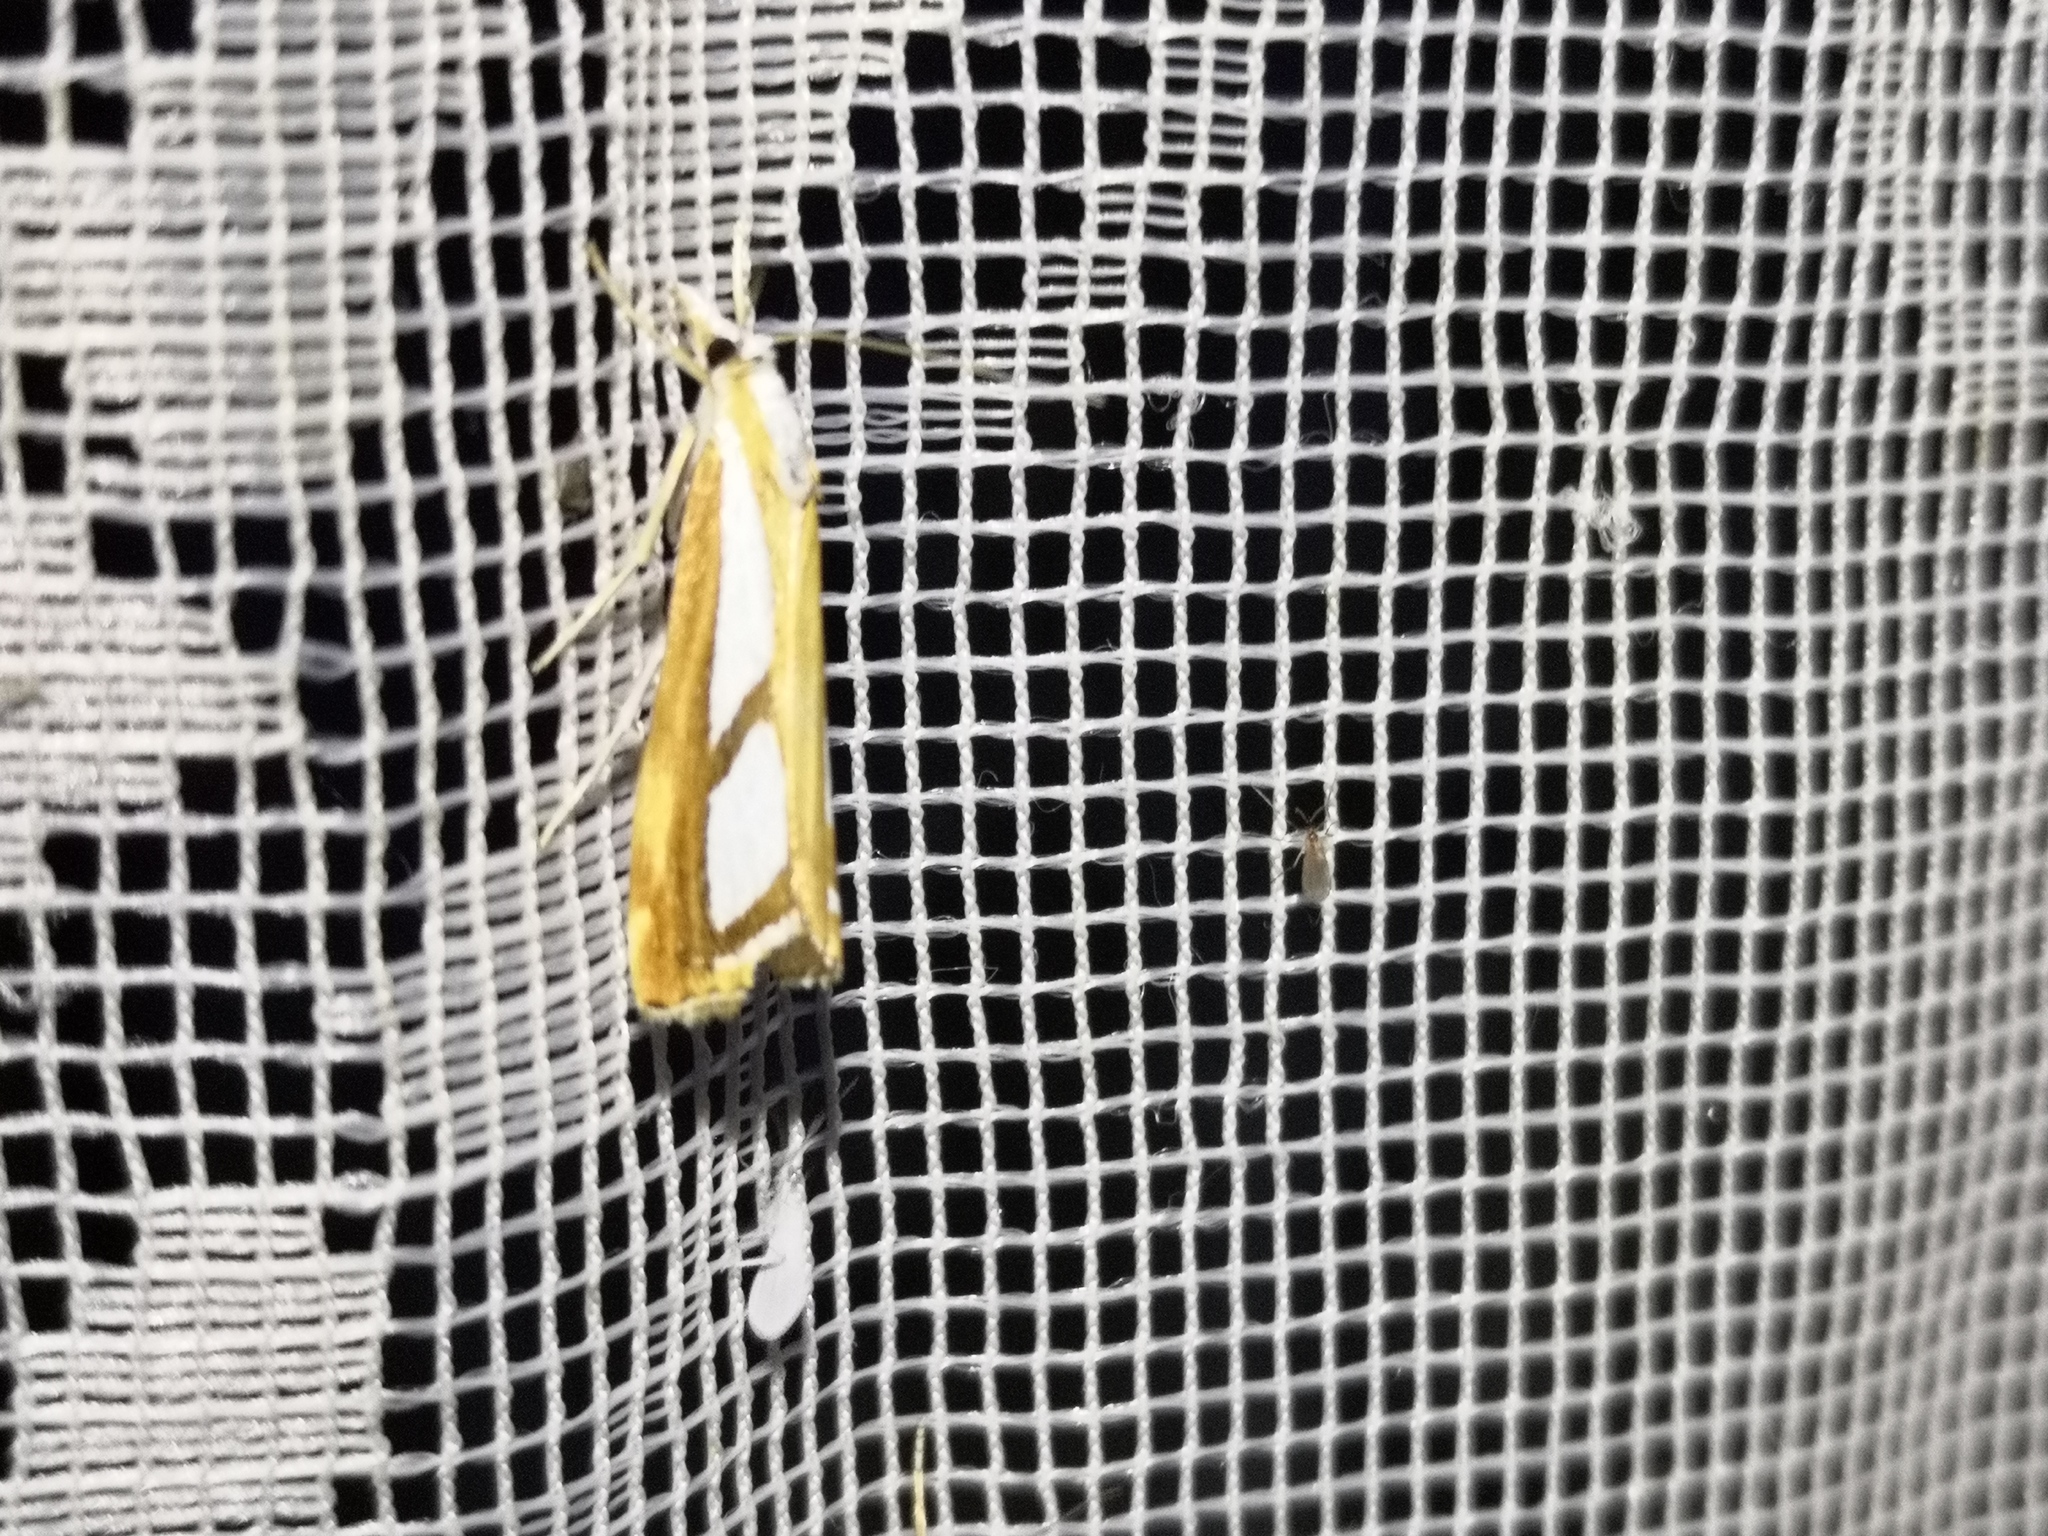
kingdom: Animalia
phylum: Arthropoda
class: Insecta
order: Lepidoptera
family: Crambidae
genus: Catoptria
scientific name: Catoptria permutatellus
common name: Scotch grass-veneer
